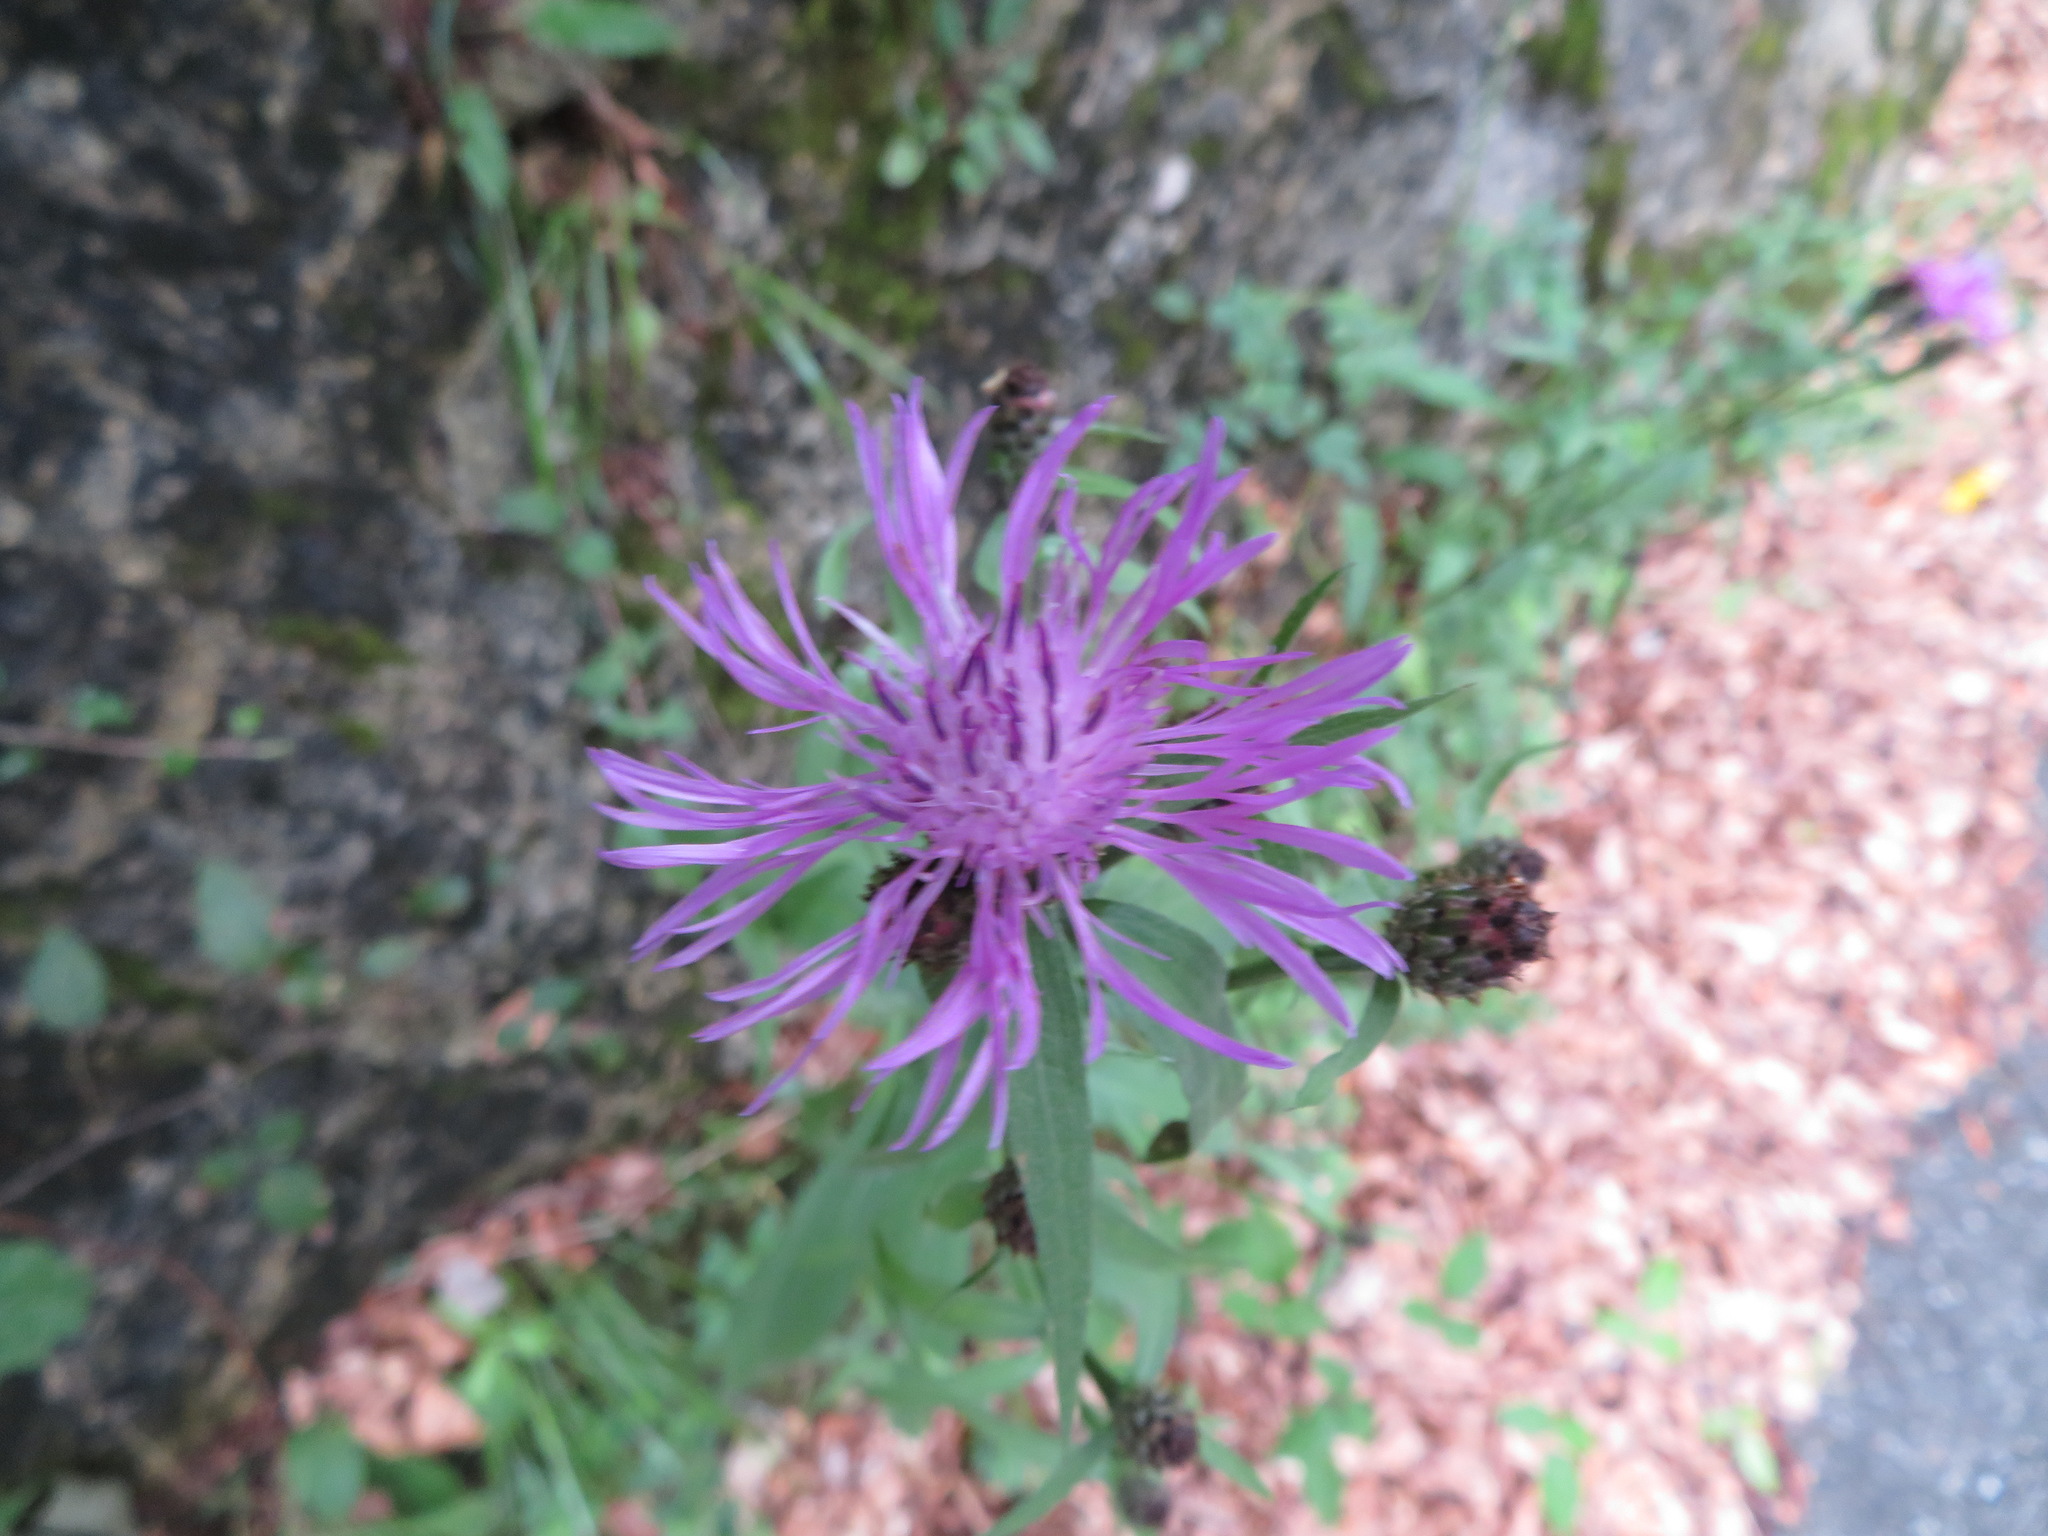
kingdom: Plantae
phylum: Tracheophyta
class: Magnoliopsida
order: Asterales
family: Asteraceae
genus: Centaurea
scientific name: Centaurea nigrescens
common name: Tyrol knapweed
